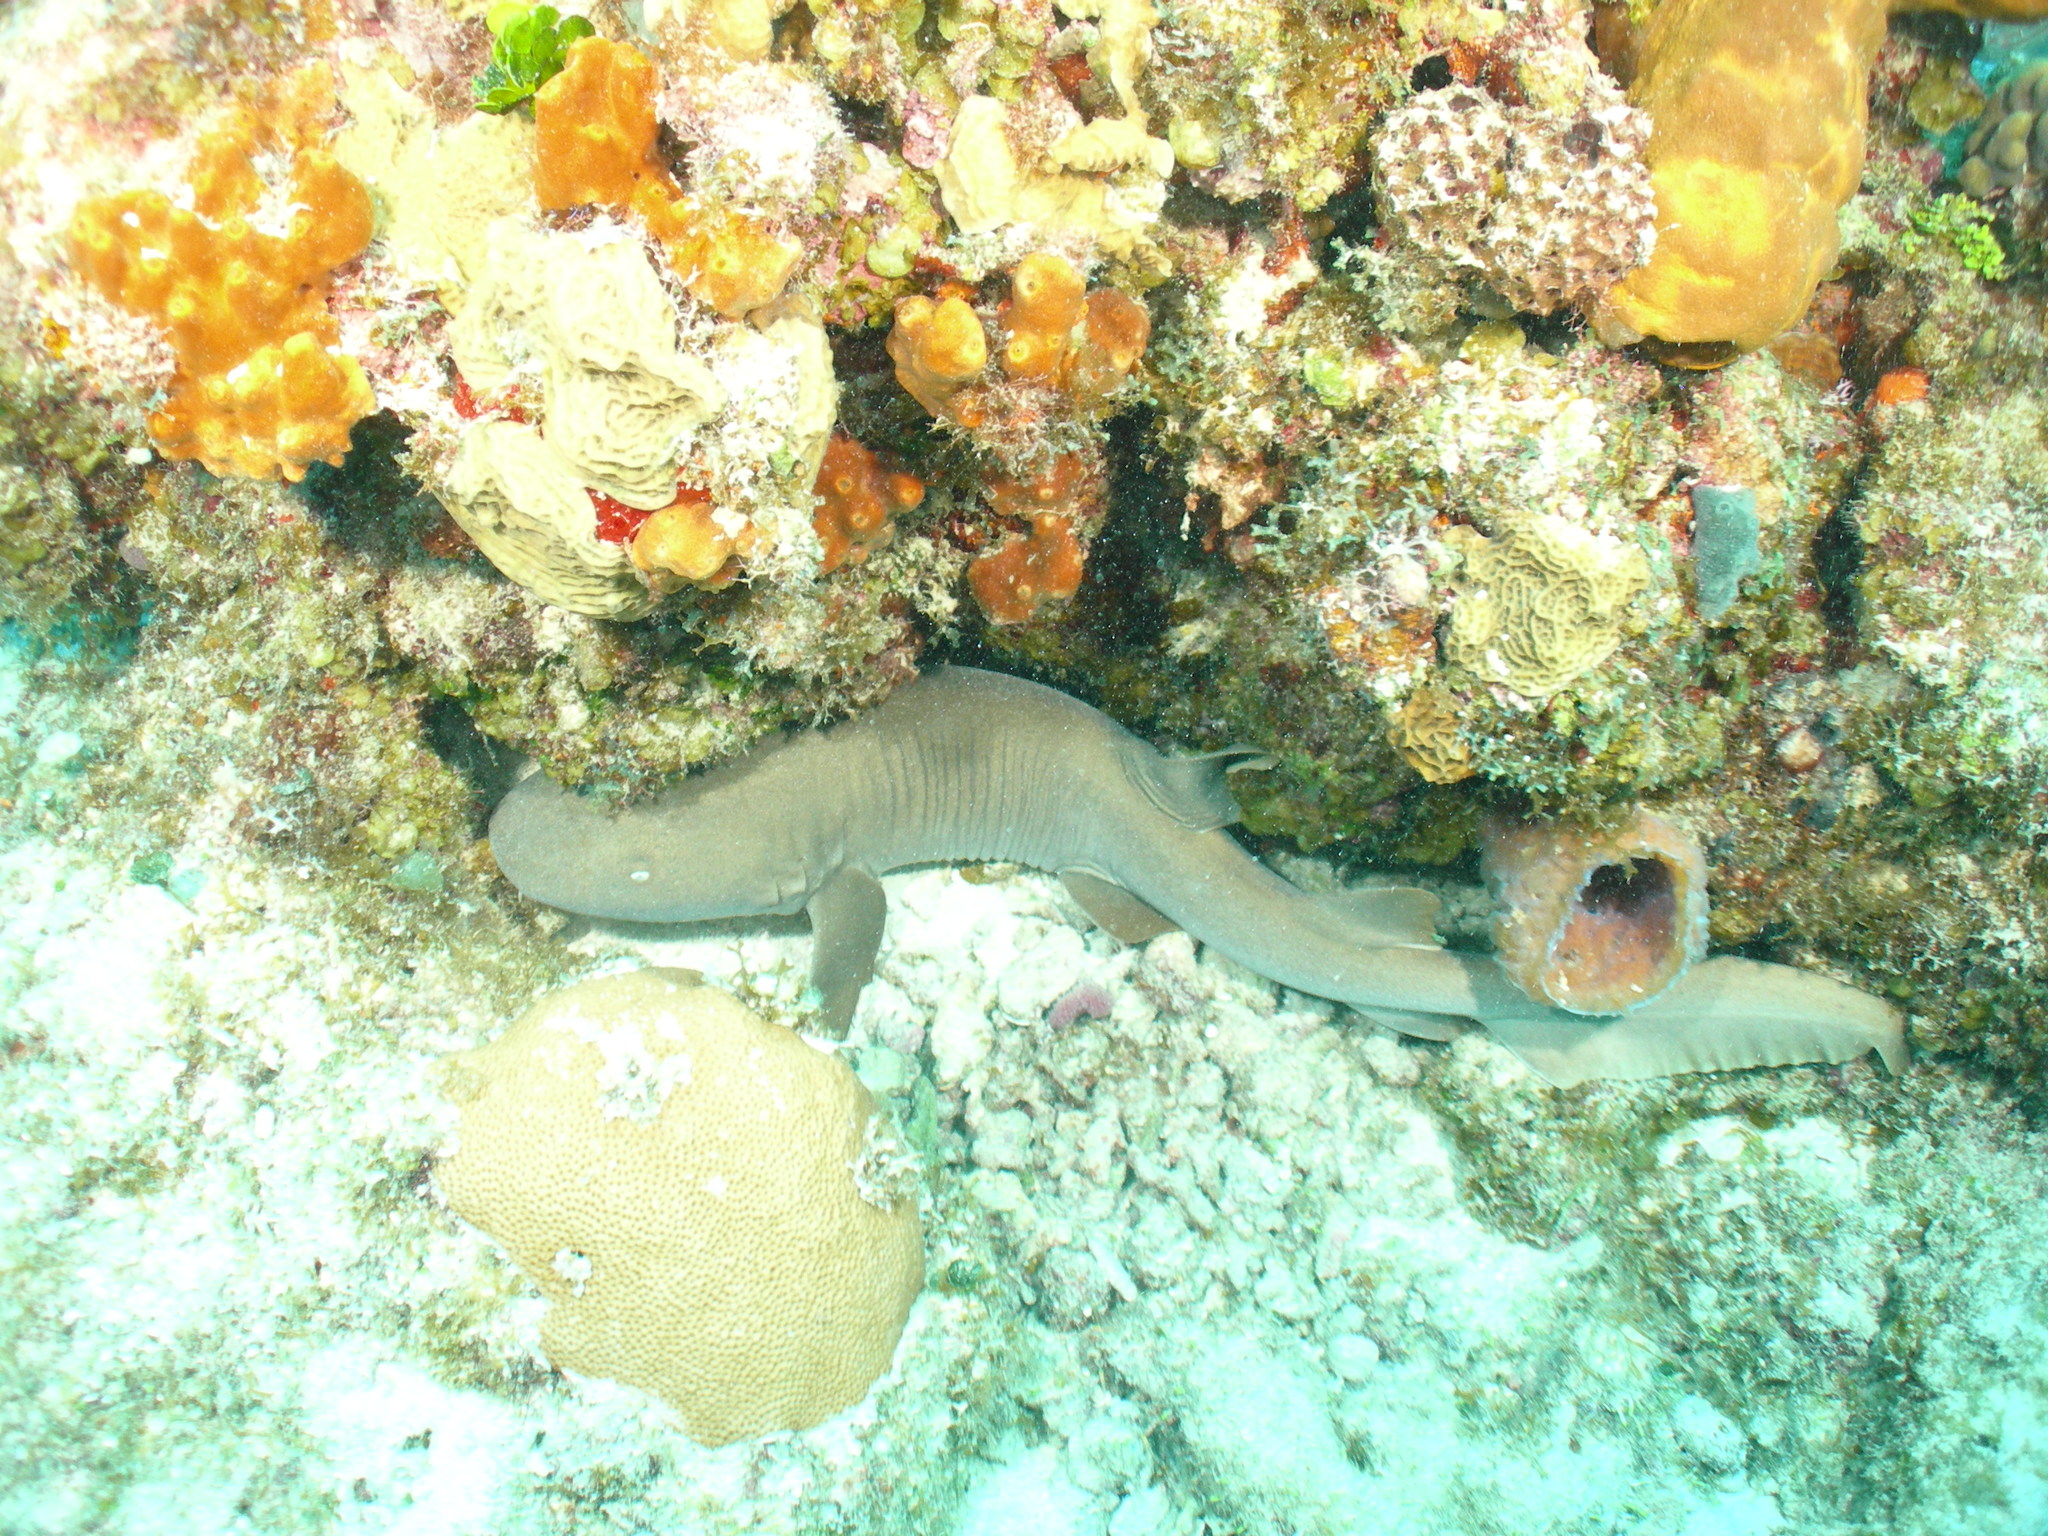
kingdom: Animalia
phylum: Chordata
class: Elasmobranchii
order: Orectolobiformes
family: Ginglymostomatidae
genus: Ginglymostoma
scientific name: Ginglymostoma cirratum
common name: Nurse shark
